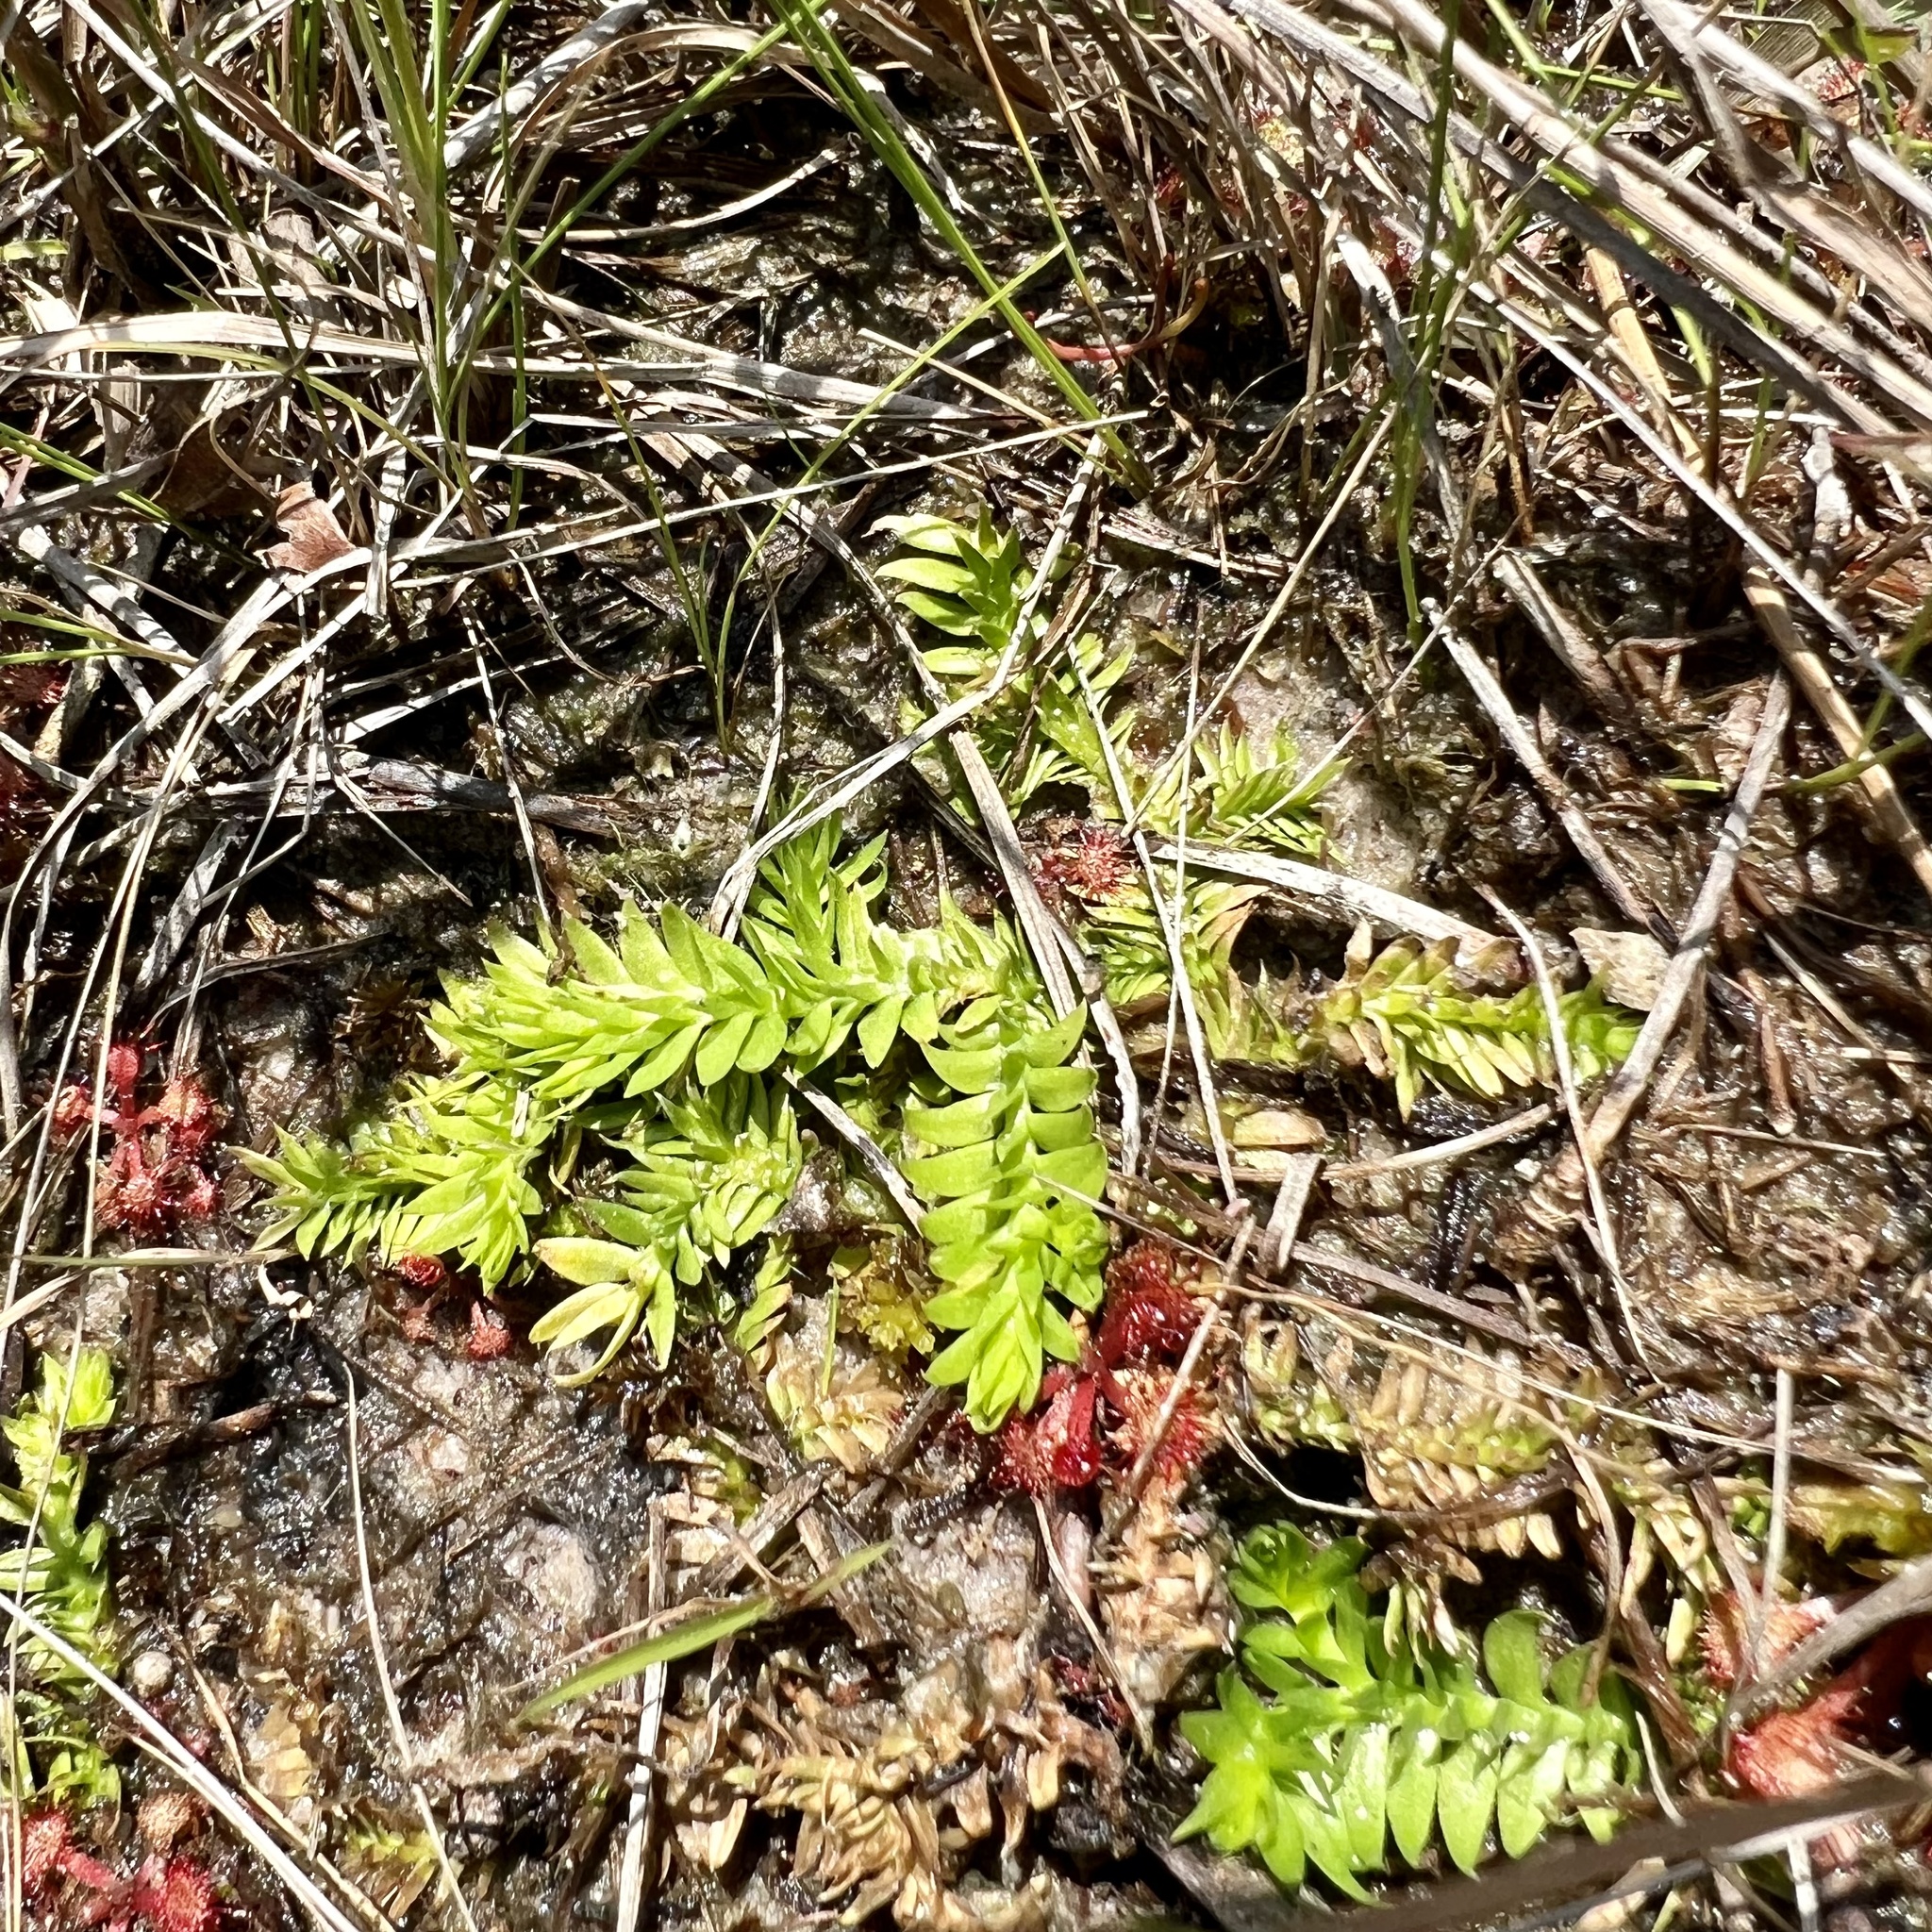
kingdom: Plantae
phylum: Tracheophyta
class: Lycopodiopsida
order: Lycopodiales
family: Lycopodiaceae
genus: Pseudolycopodiella
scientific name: Pseudolycopodiella caroliniana
